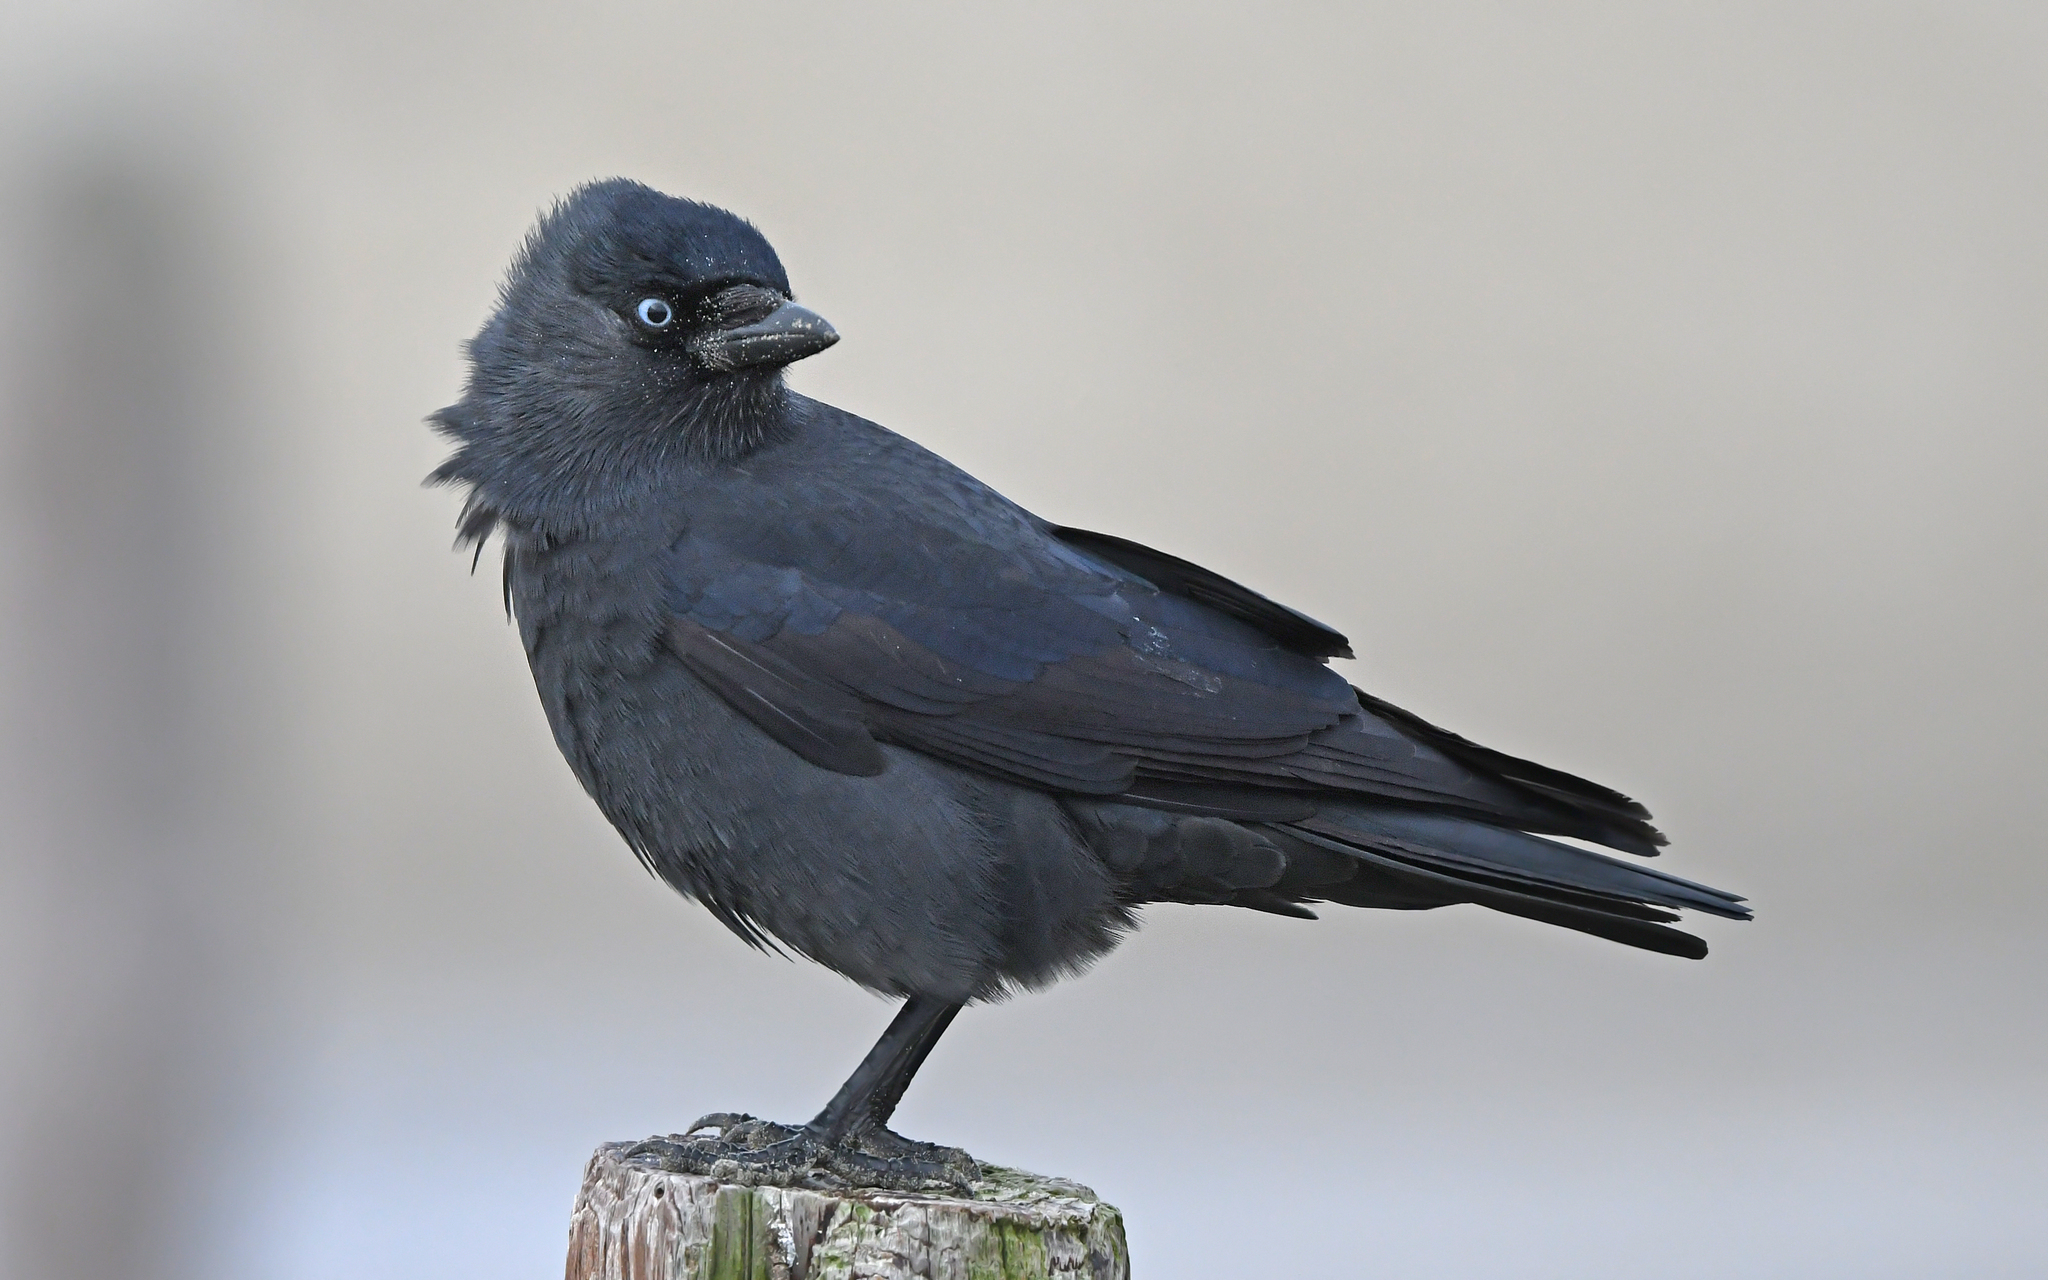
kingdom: Animalia
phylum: Chordata
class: Aves
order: Passeriformes
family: Corvidae
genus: Coloeus
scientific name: Coloeus monedula
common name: Western jackdaw
